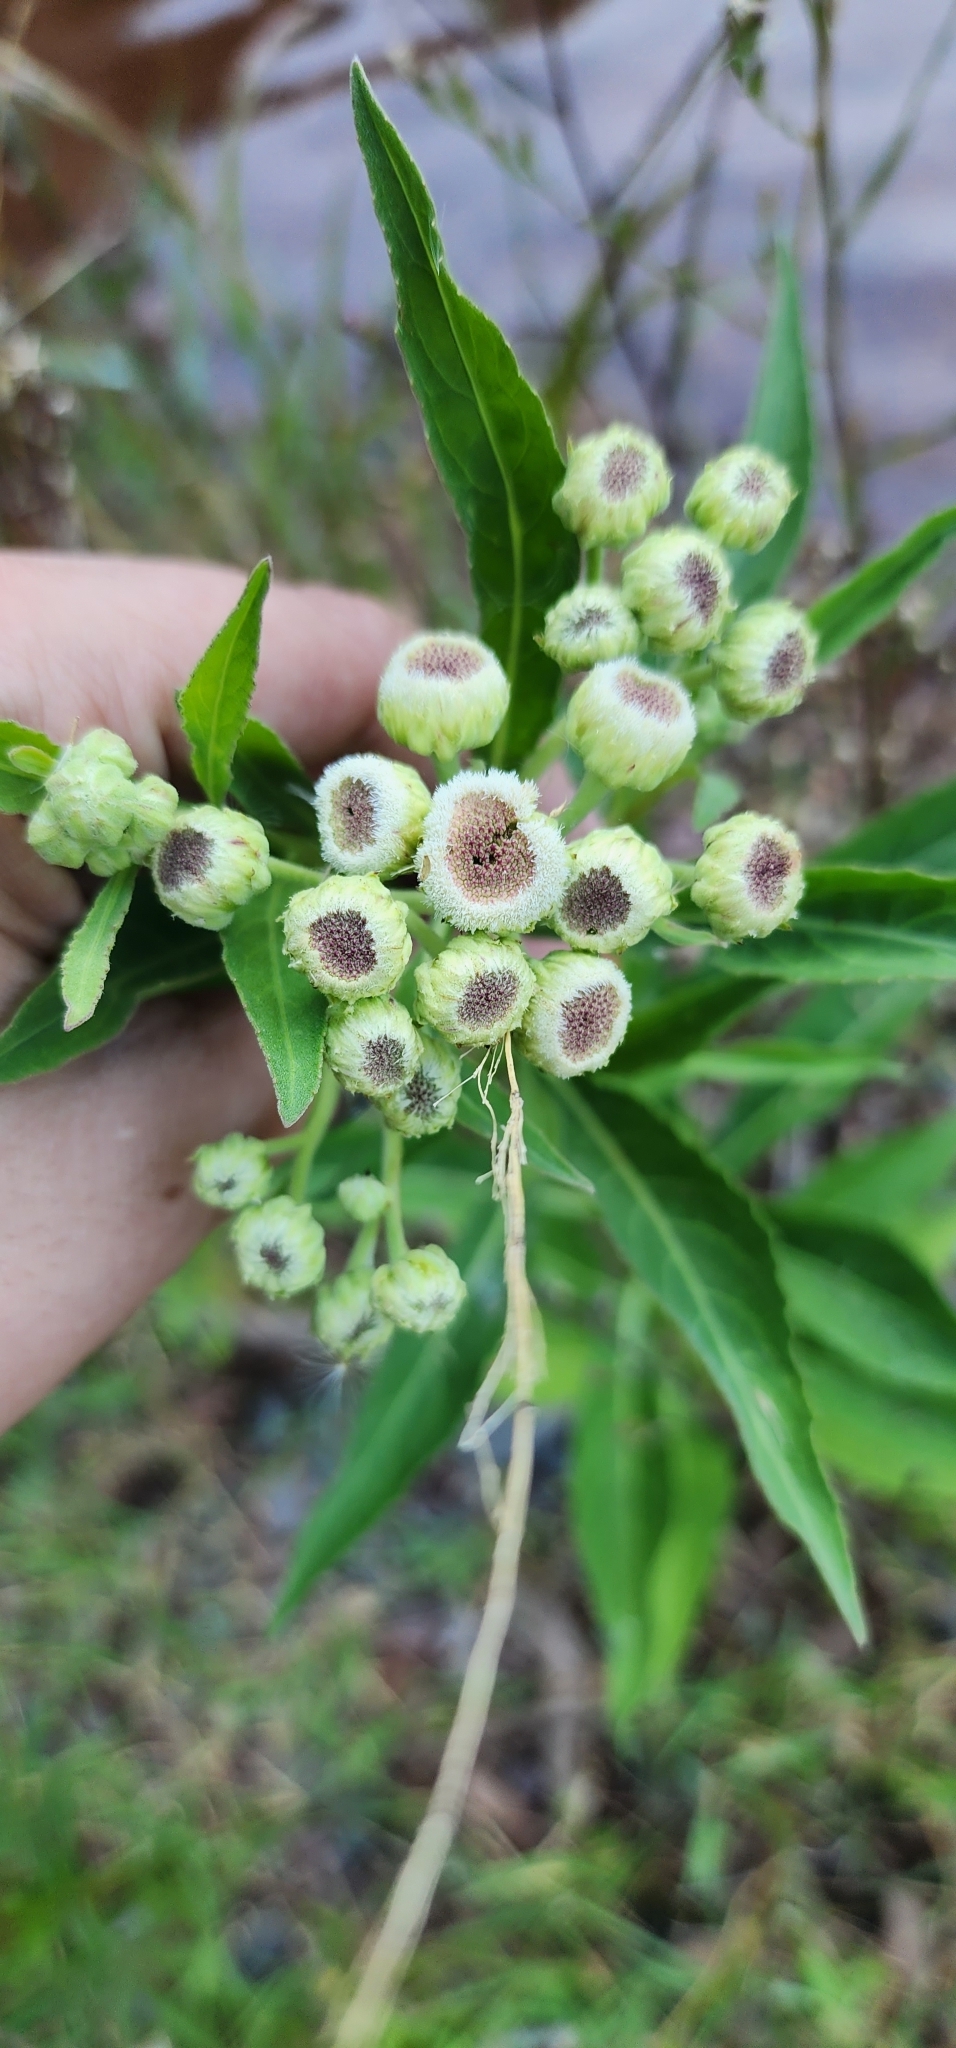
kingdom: Plantae
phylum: Tracheophyta
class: Magnoliopsida
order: Asterales
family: Asteraceae
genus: Pluchea
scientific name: Pluchea sagittalis
